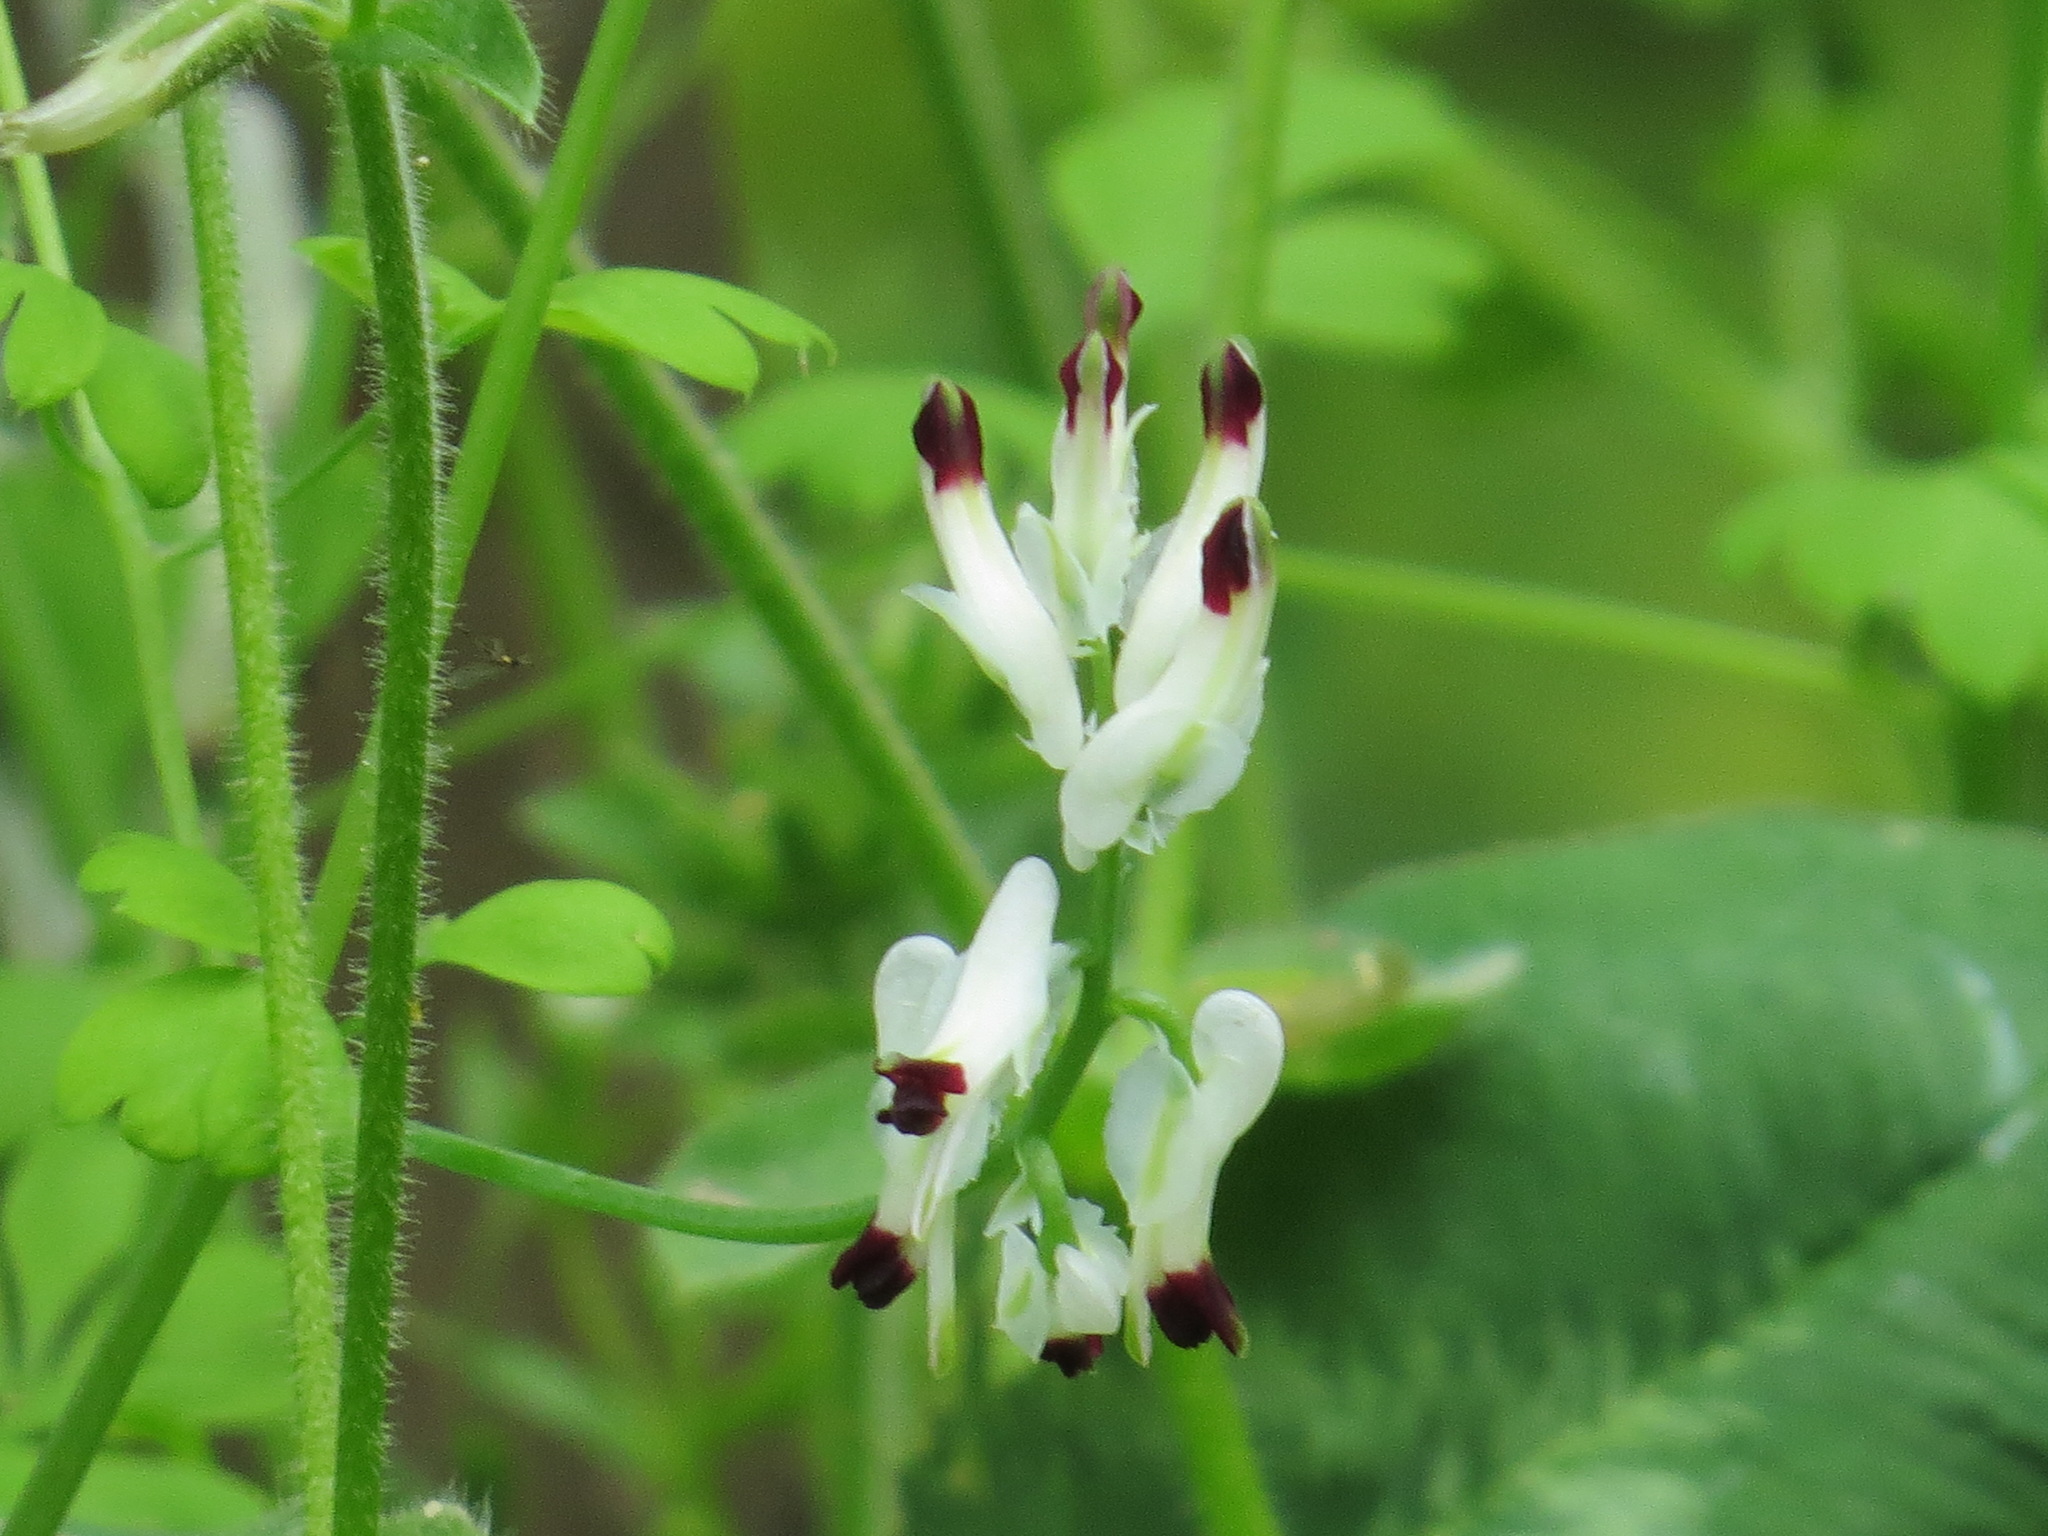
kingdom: Plantae
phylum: Tracheophyta
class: Magnoliopsida
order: Ranunculales
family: Papaveraceae
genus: Fumaria
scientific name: Fumaria capreolata
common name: White ramping-fumitory
